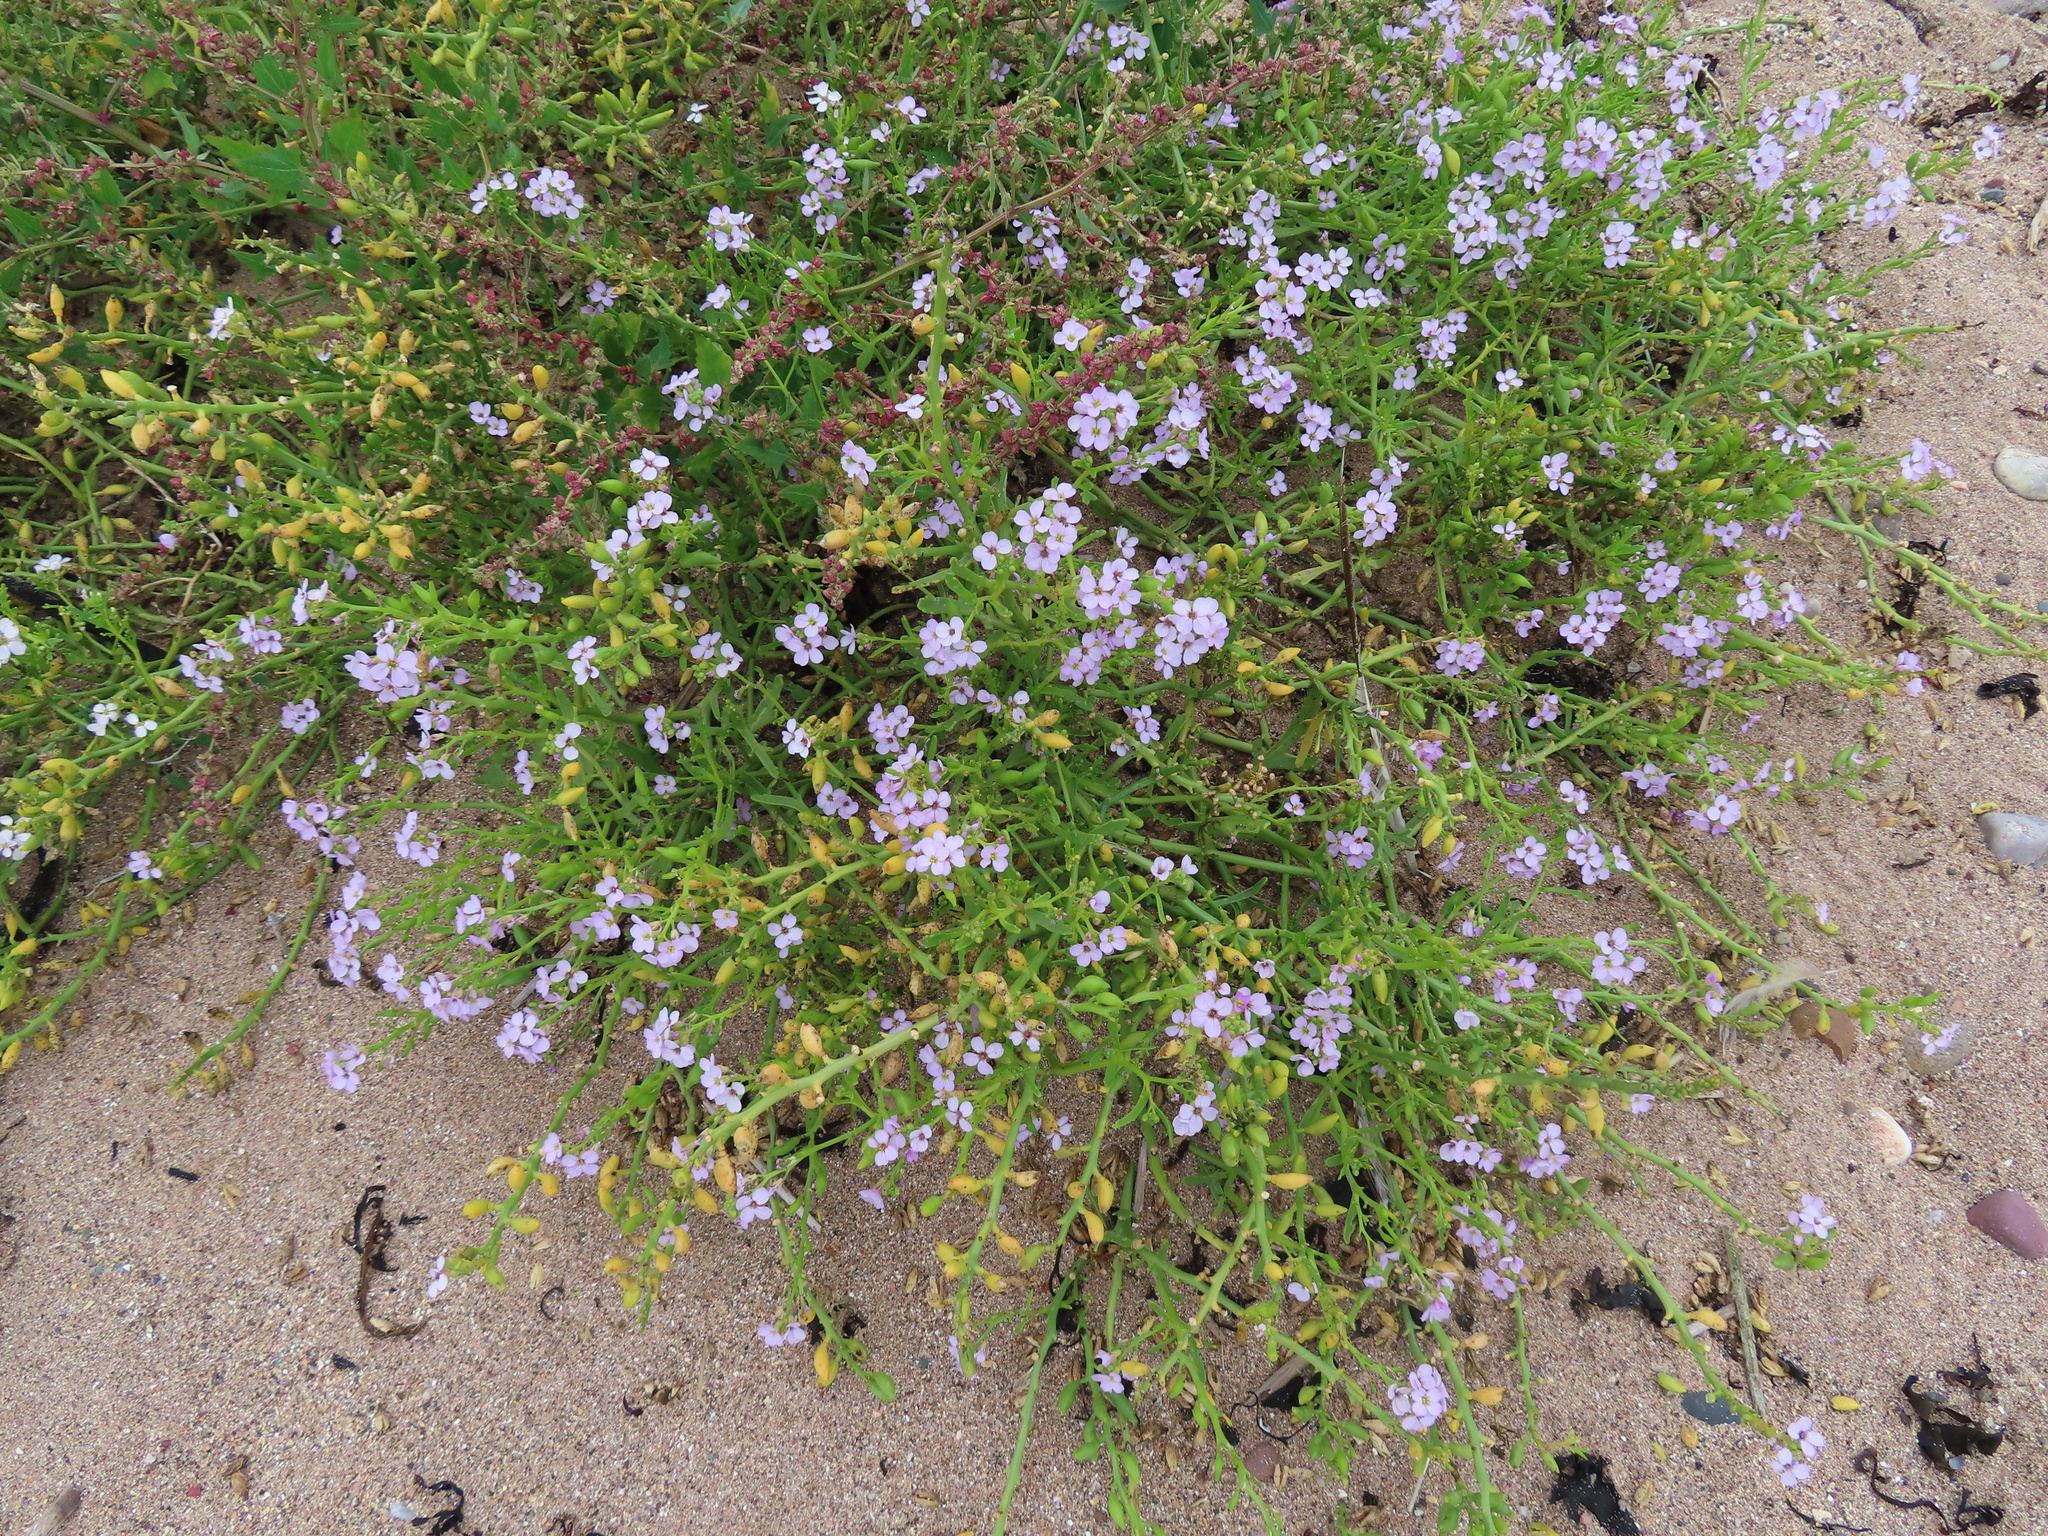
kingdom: Plantae
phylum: Tracheophyta
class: Magnoliopsida
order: Brassicales
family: Brassicaceae
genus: Cakile
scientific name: Cakile maritima
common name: Sea rocket
